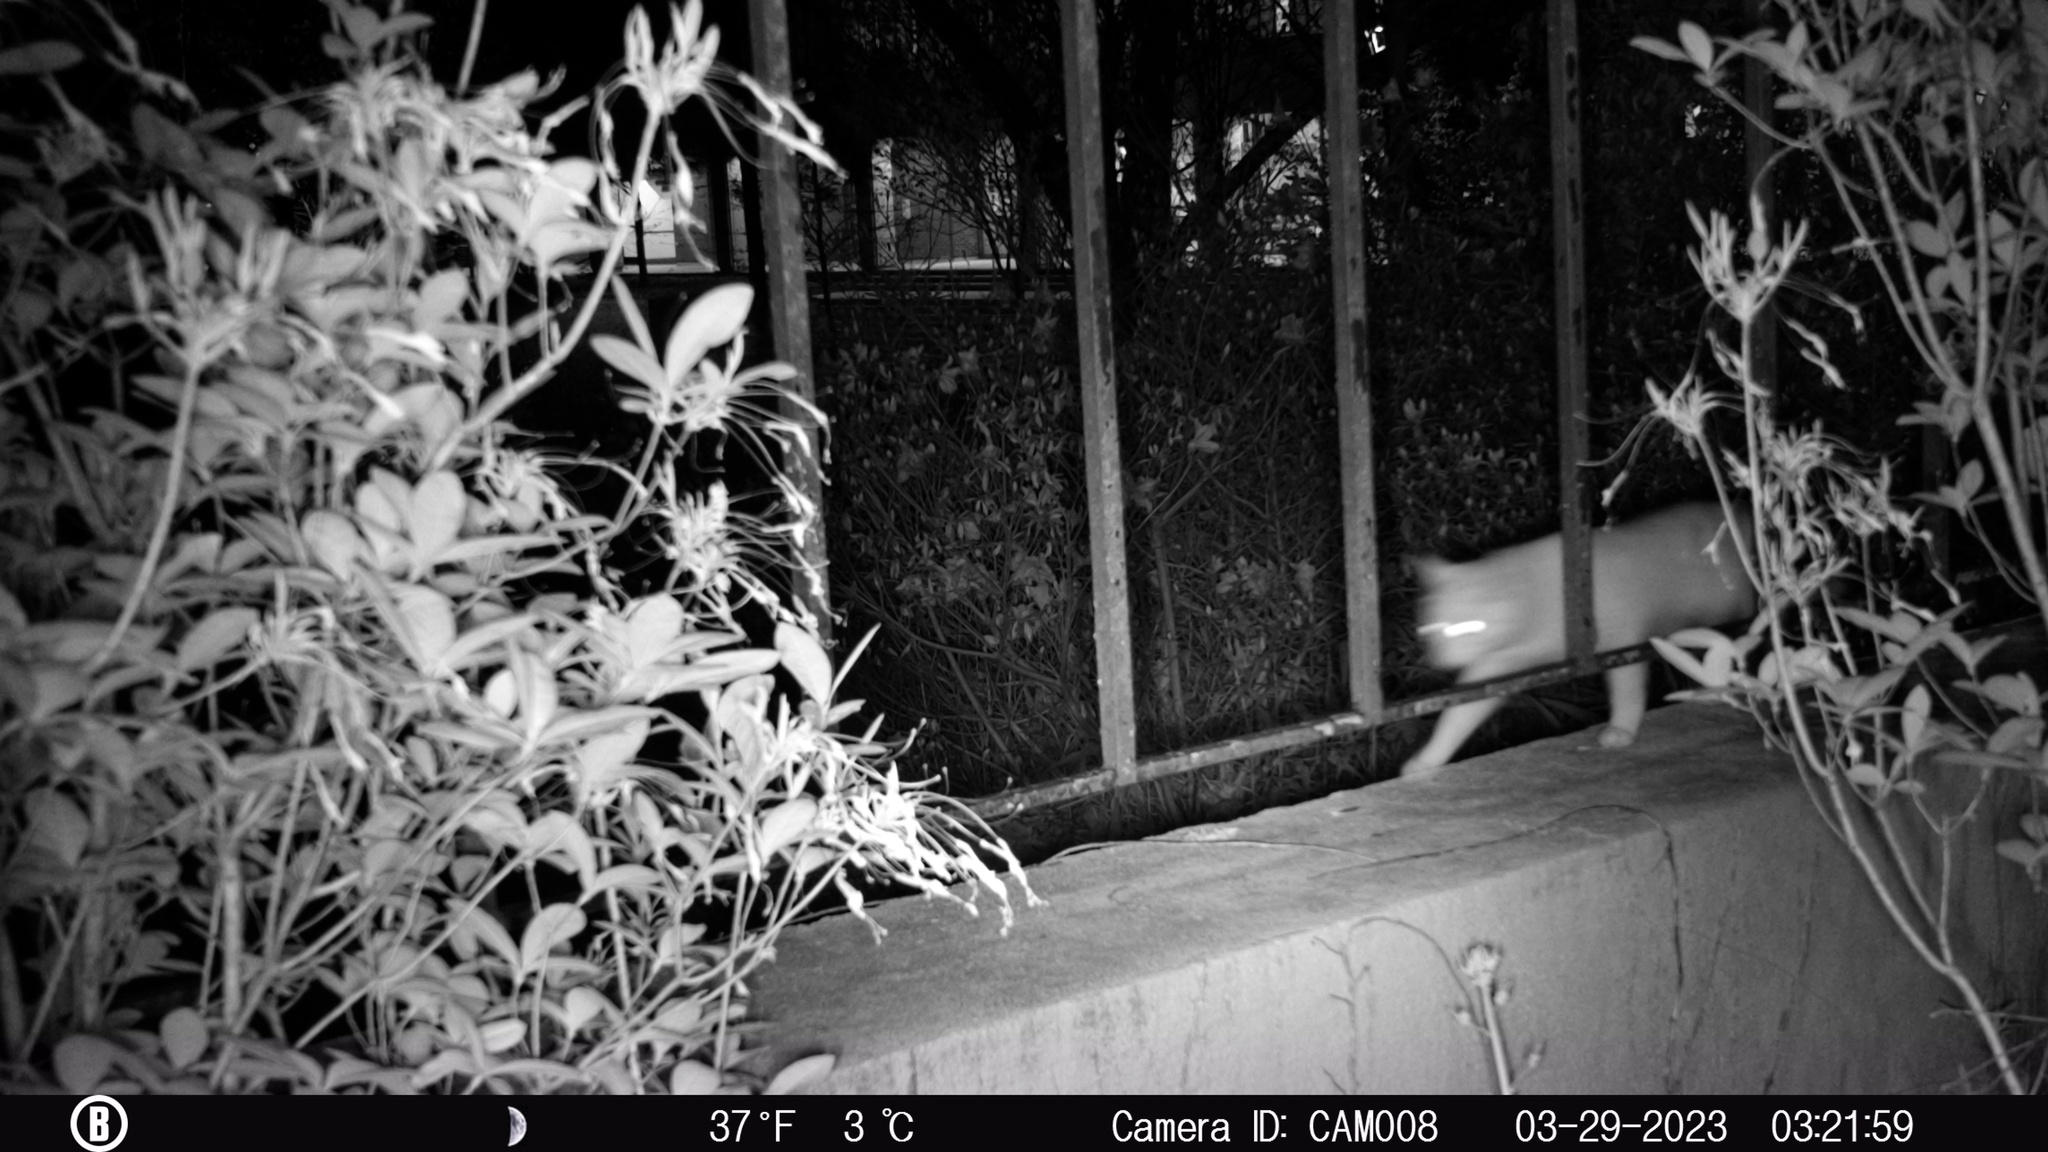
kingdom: Animalia
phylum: Chordata
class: Mammalia
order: Carnivora
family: Felidae
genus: Felis
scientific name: Felis catus
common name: Domestic cat
